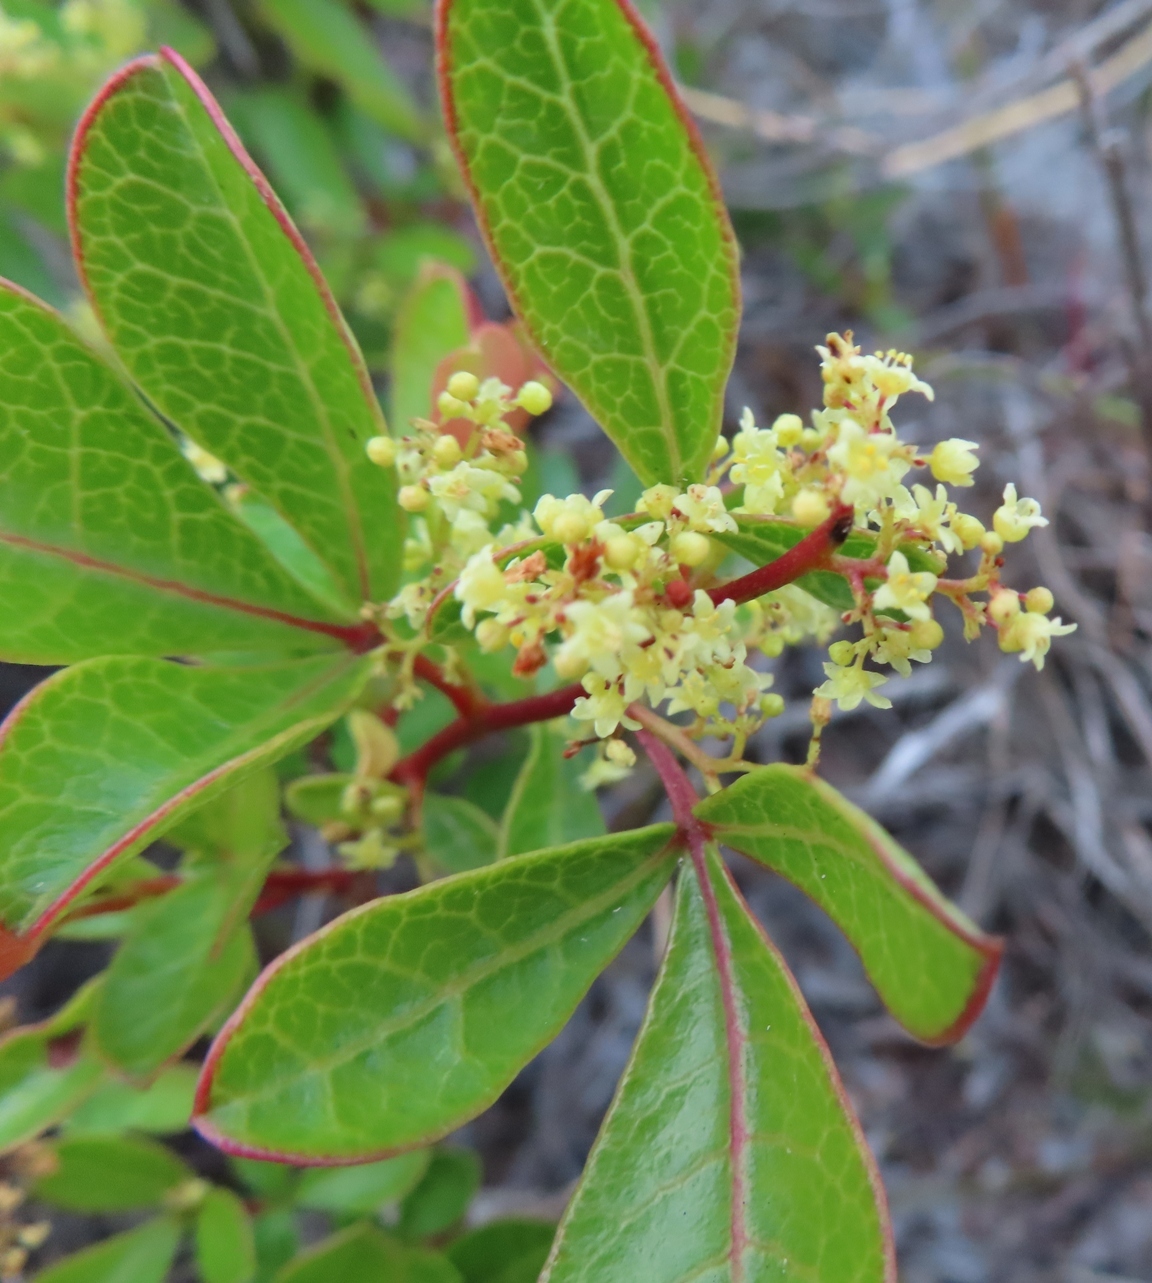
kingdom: Plantae
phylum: Tracheophyta
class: Magnoliopsida
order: Sapindales
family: Anacardiaceae
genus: Searsia
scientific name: Searsia laevigata
